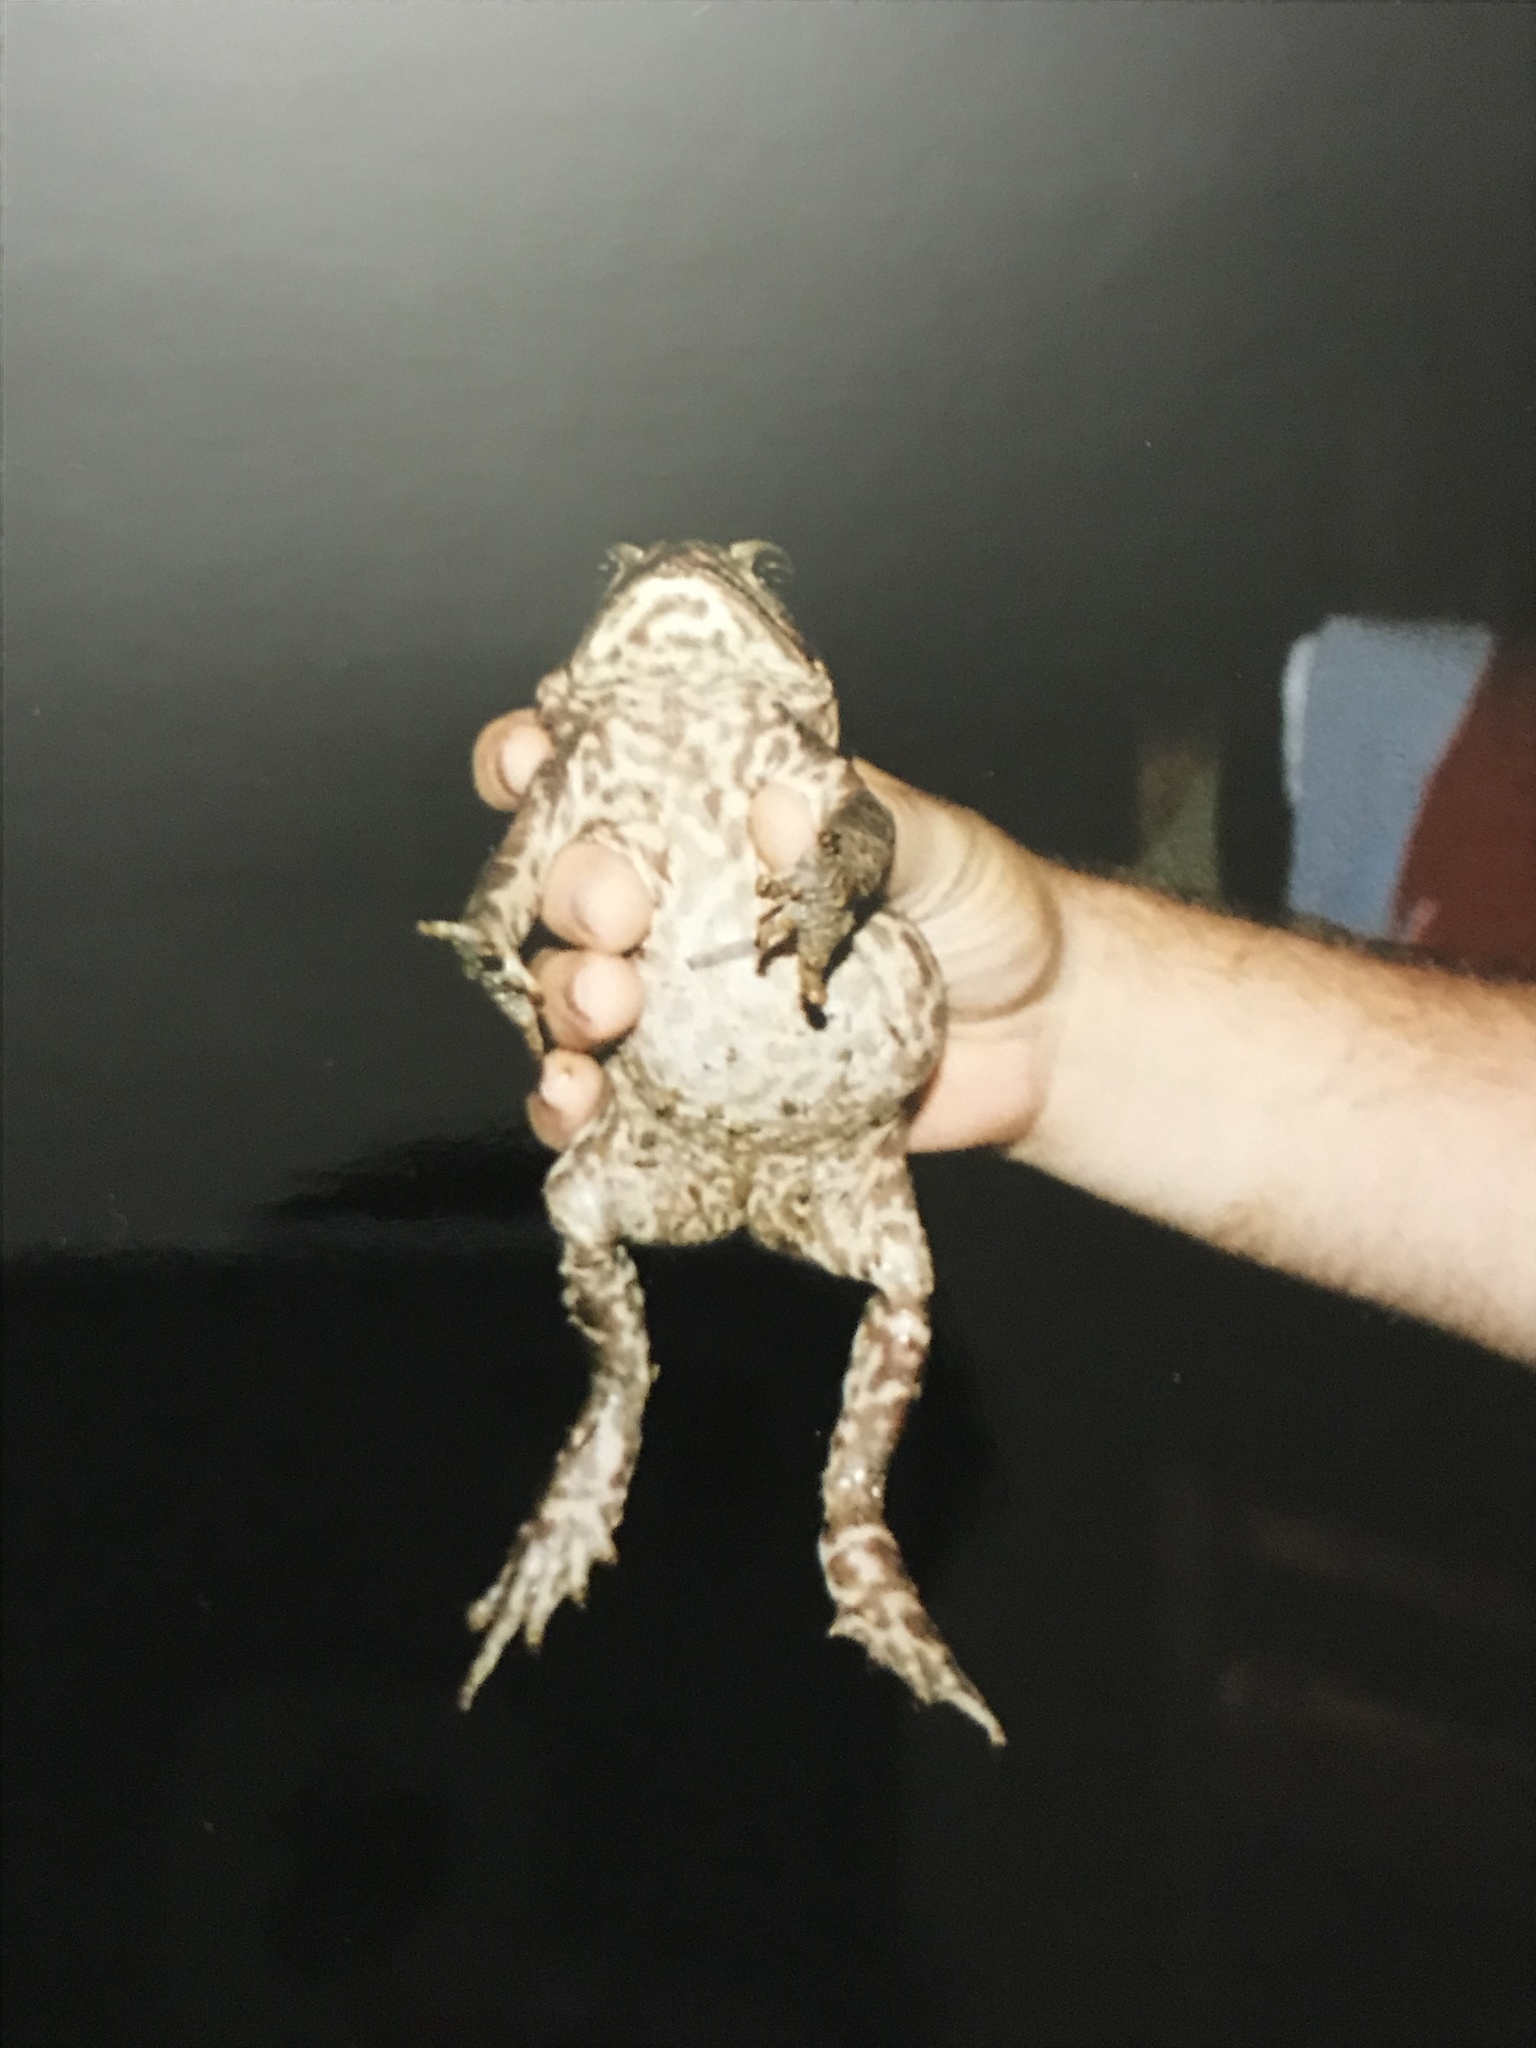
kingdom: Animalia
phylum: Chordata
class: Amphibia
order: Anura
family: Bufonidae
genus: Rhinella
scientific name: Rhinella horribilis
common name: Mesoamerican cane toad
